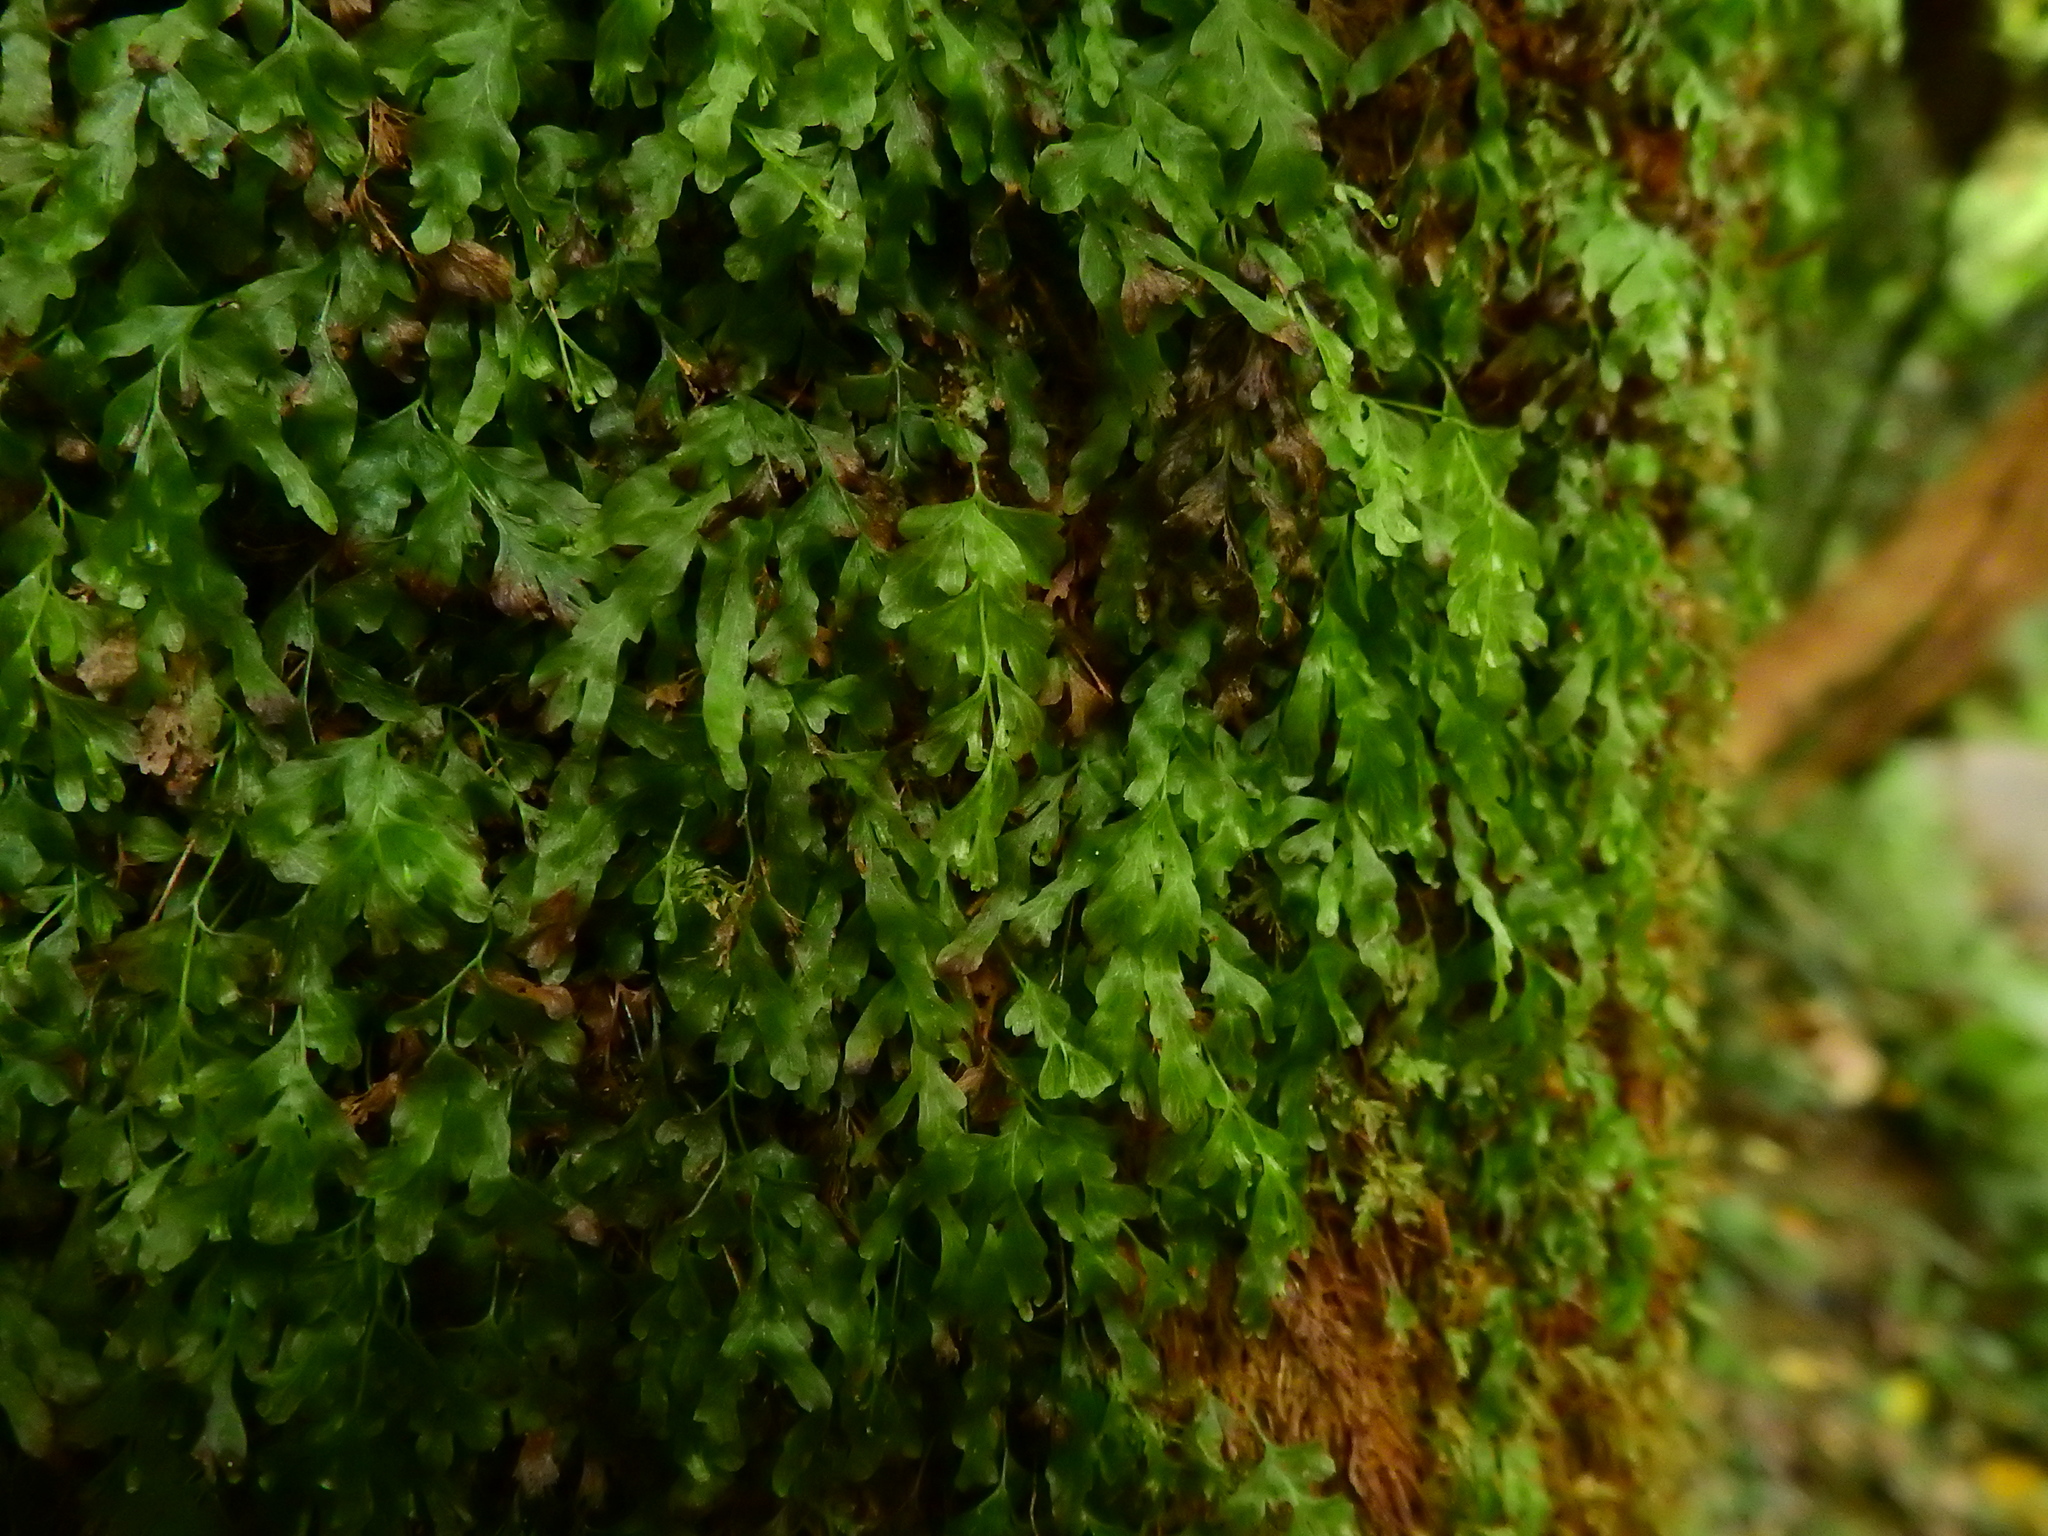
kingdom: Plantae
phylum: Tracheophyta
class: Polypodiopsida
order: Hymenophyllales
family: Hymenophyllaceae
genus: Polyphlebium
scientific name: Polyphlebium venosum
